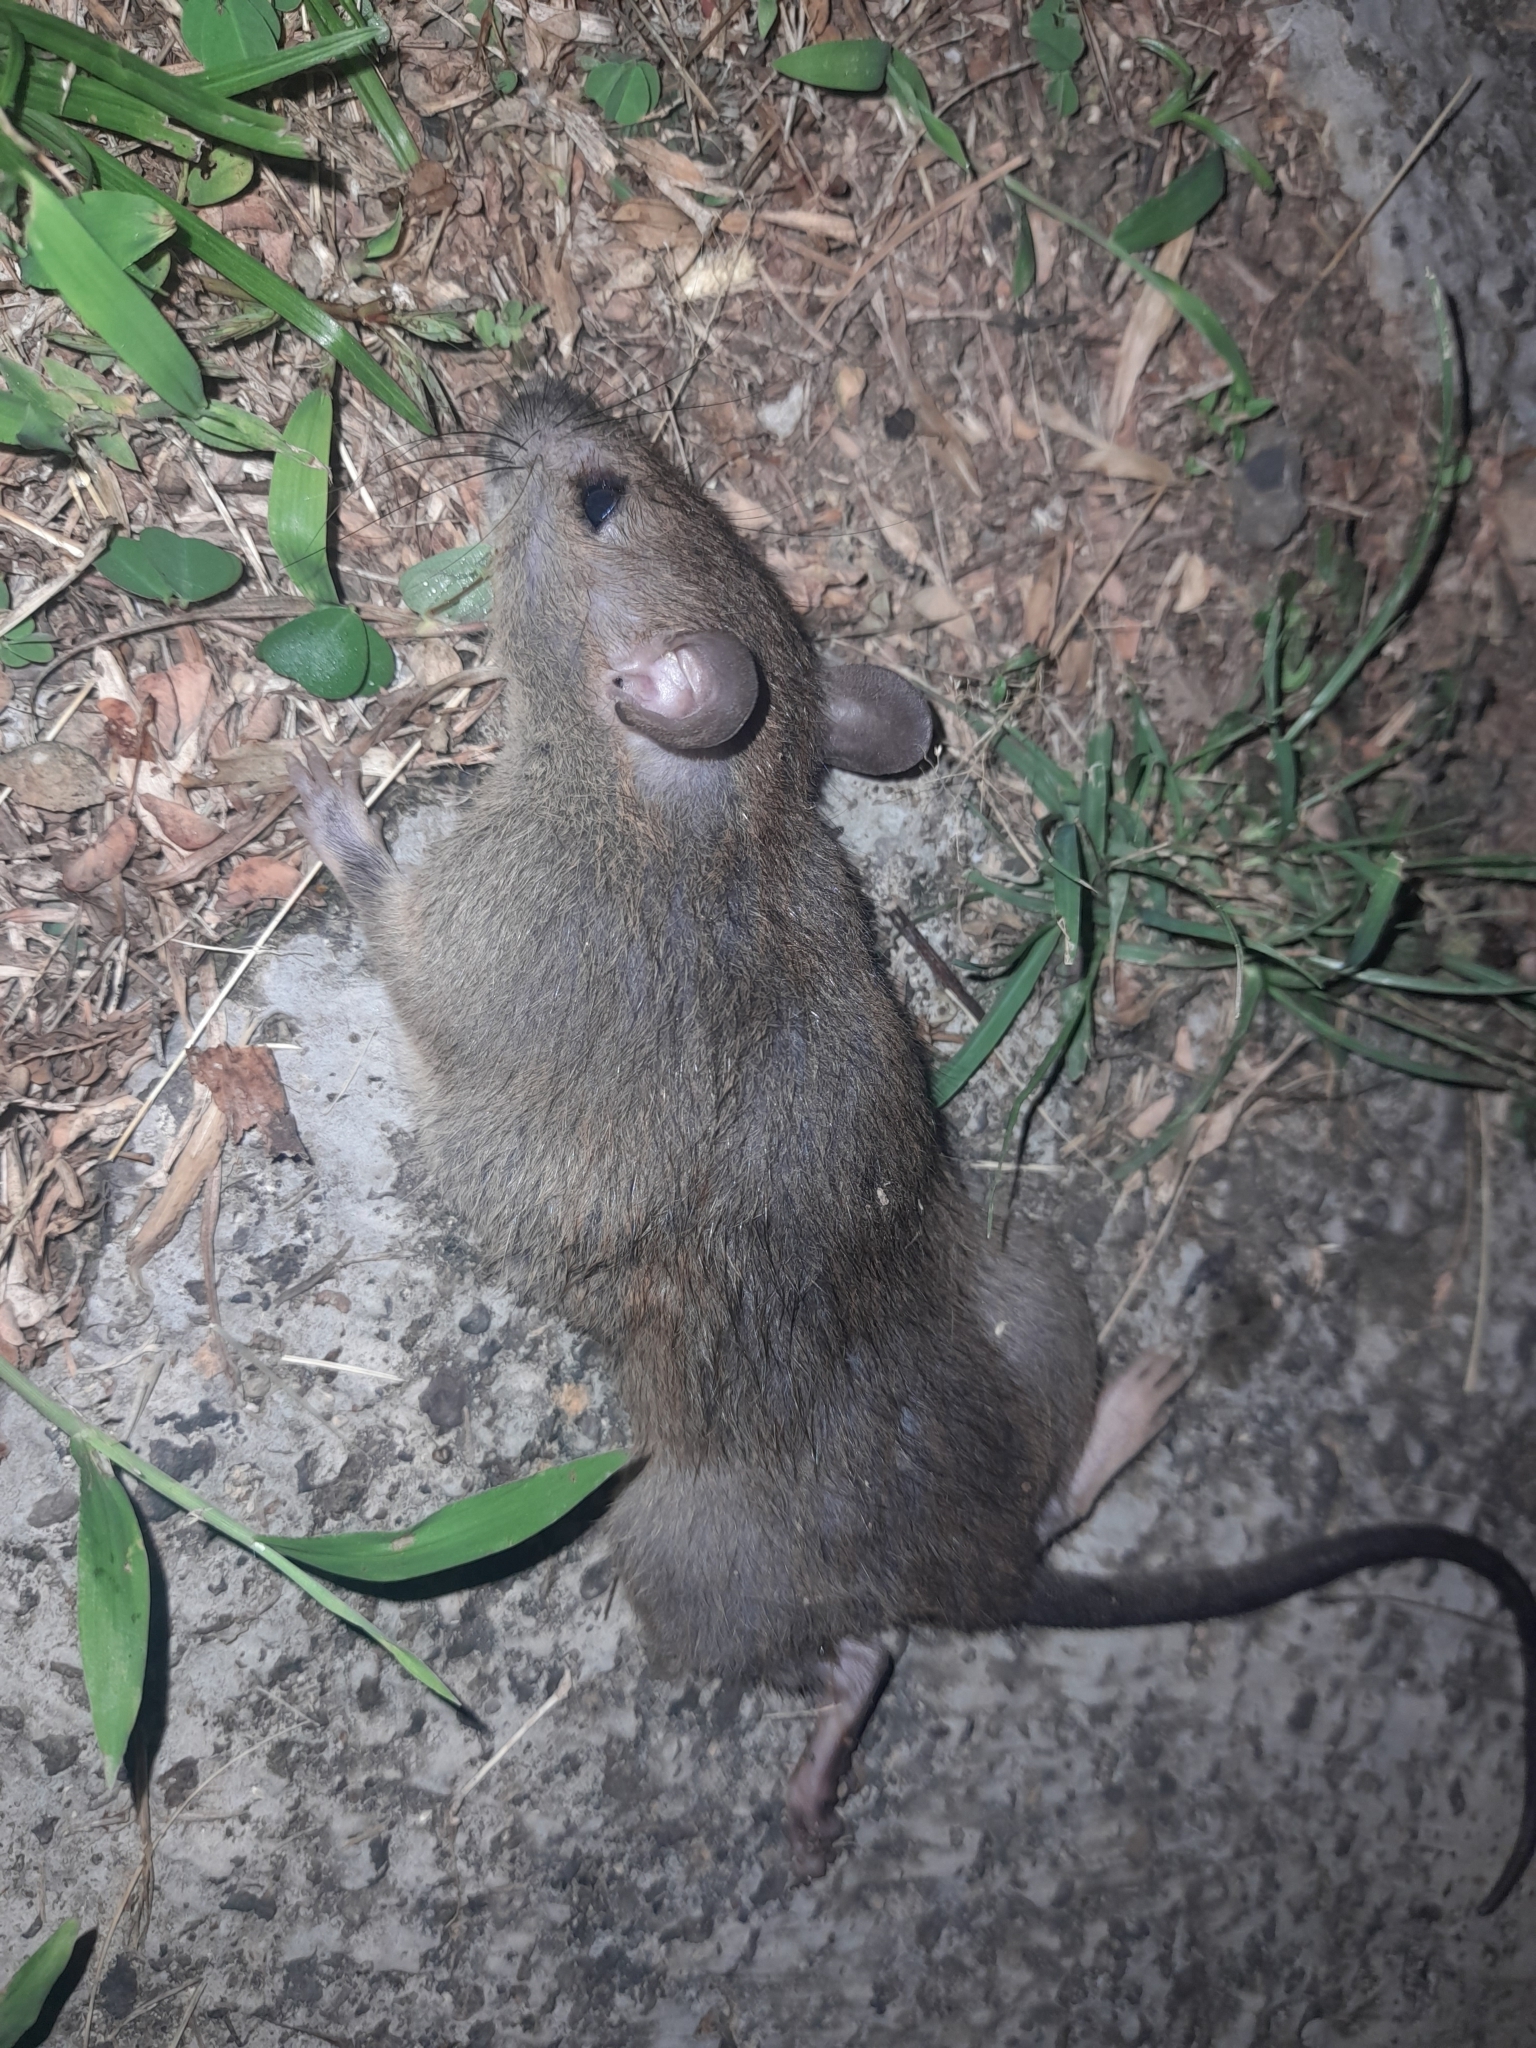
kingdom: Animalia
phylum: Chordata
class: Mammalia
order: Rodentia
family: Muridae
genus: Rattus
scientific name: Rattus hoffmanni
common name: Hoffmann’s sulawesi rat
